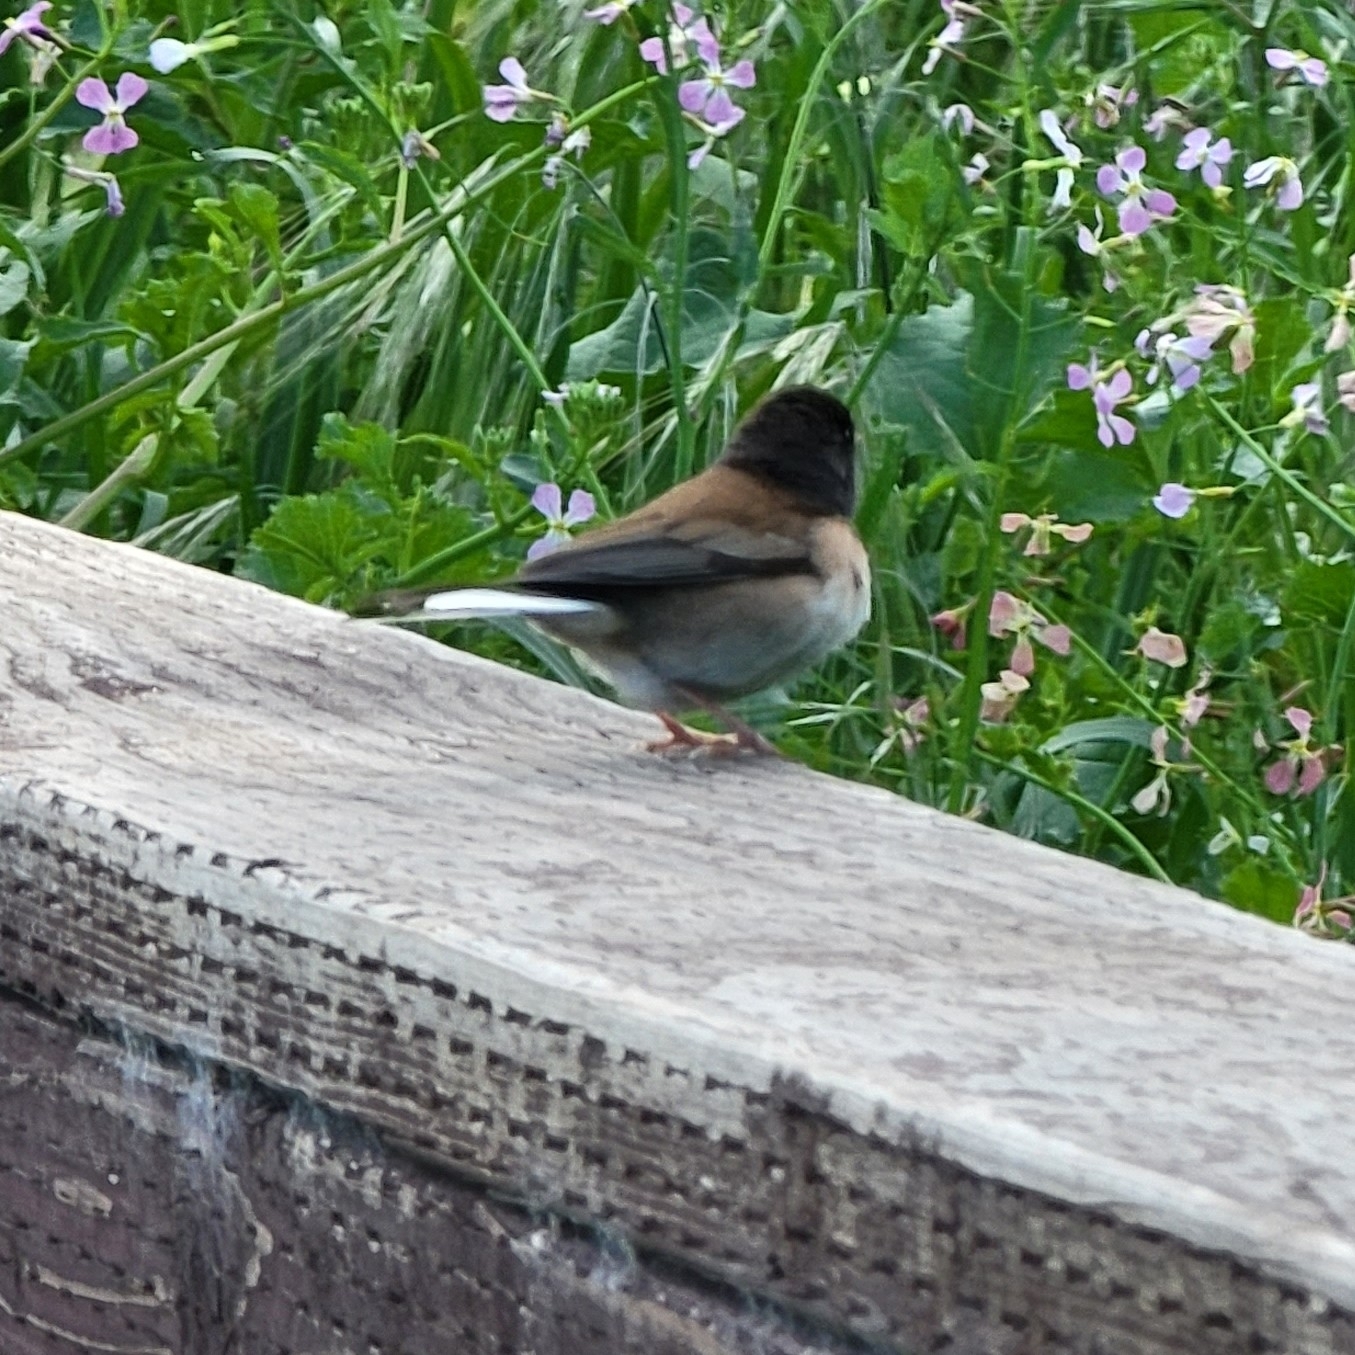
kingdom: Animalia
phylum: Chordata
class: Aves
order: Passeriformes
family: Passerellidae
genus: Junco
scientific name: Junco hyemalis
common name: Dark-eyed junco
